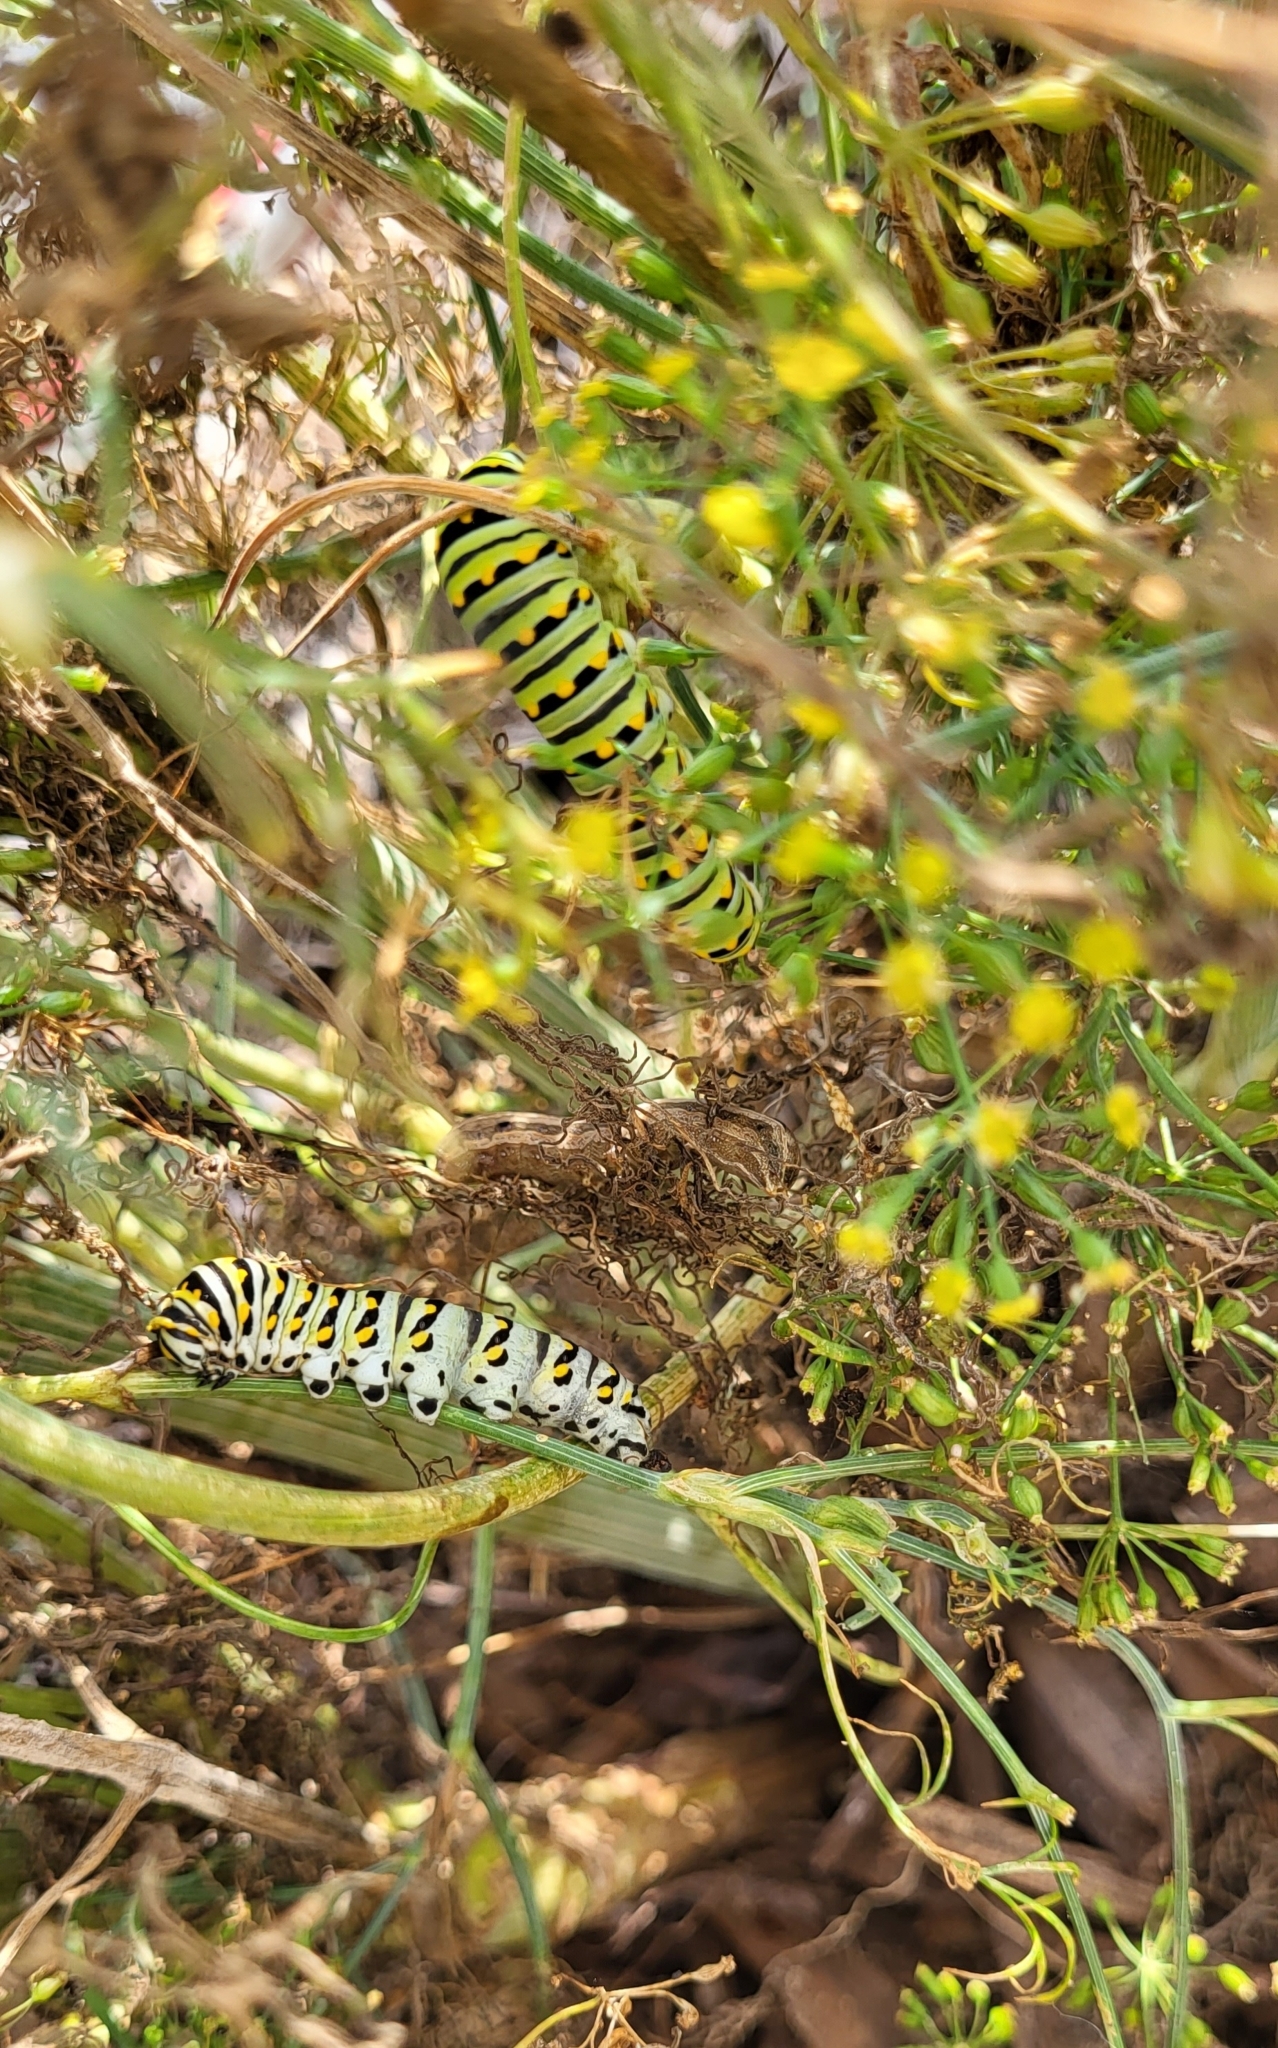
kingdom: Animalia
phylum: Arthropoda
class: Insecta
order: Lepidoptera
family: Papilionidae
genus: Papilio
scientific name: Papilio polyxenes
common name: Black swallowtail
